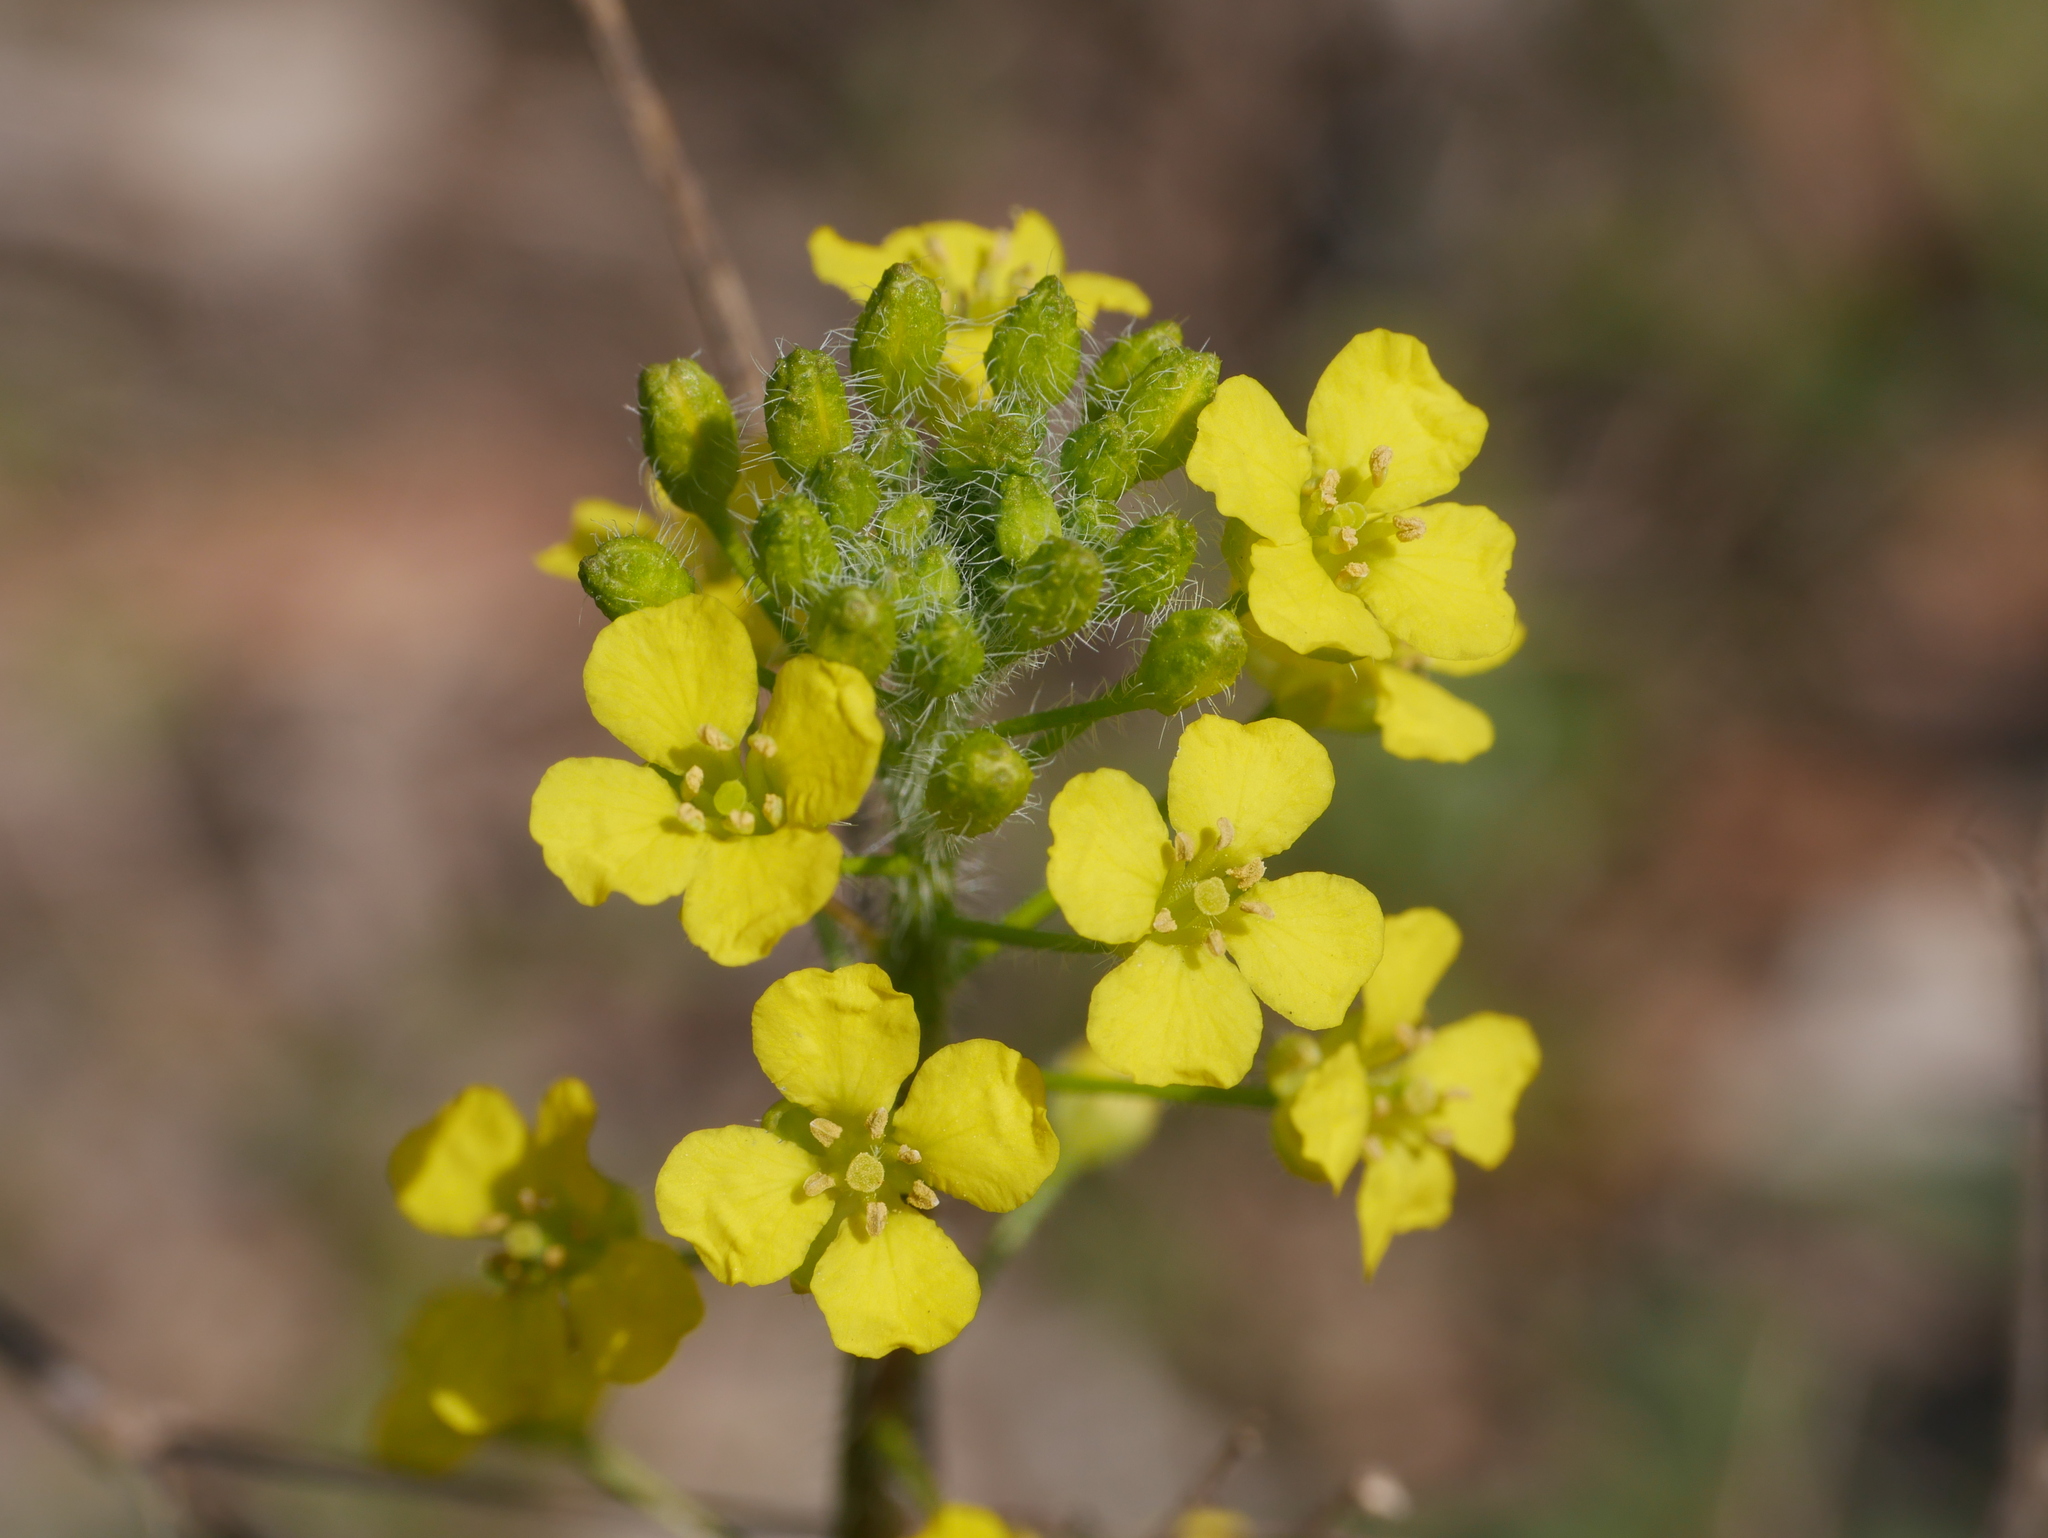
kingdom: Plantae
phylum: Tracheophyta
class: Magnoliopsida
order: Brassicales
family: Brassicaceae
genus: Brassica
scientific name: Brassica rapa
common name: Field mustard
